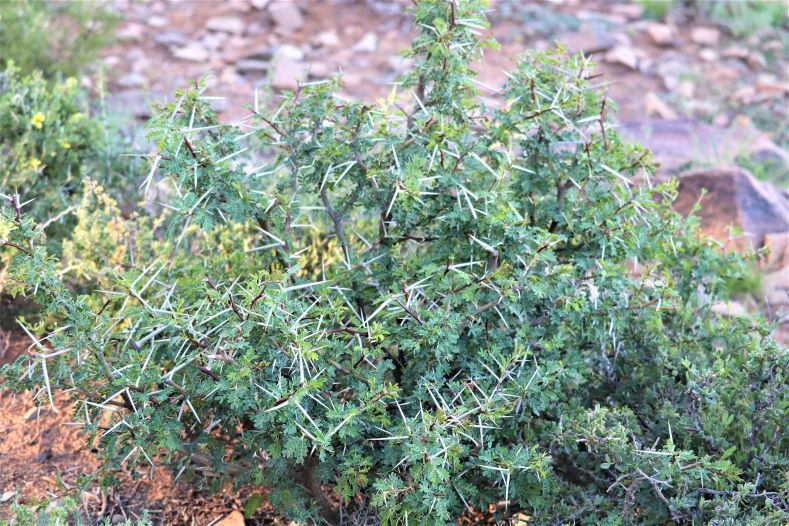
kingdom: Plantae
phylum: Tracheophyta
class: Magnoliopsida
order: Fabales
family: Fabaceae
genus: Vachellia
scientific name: Vachellia karroo
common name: Sweet thorn
